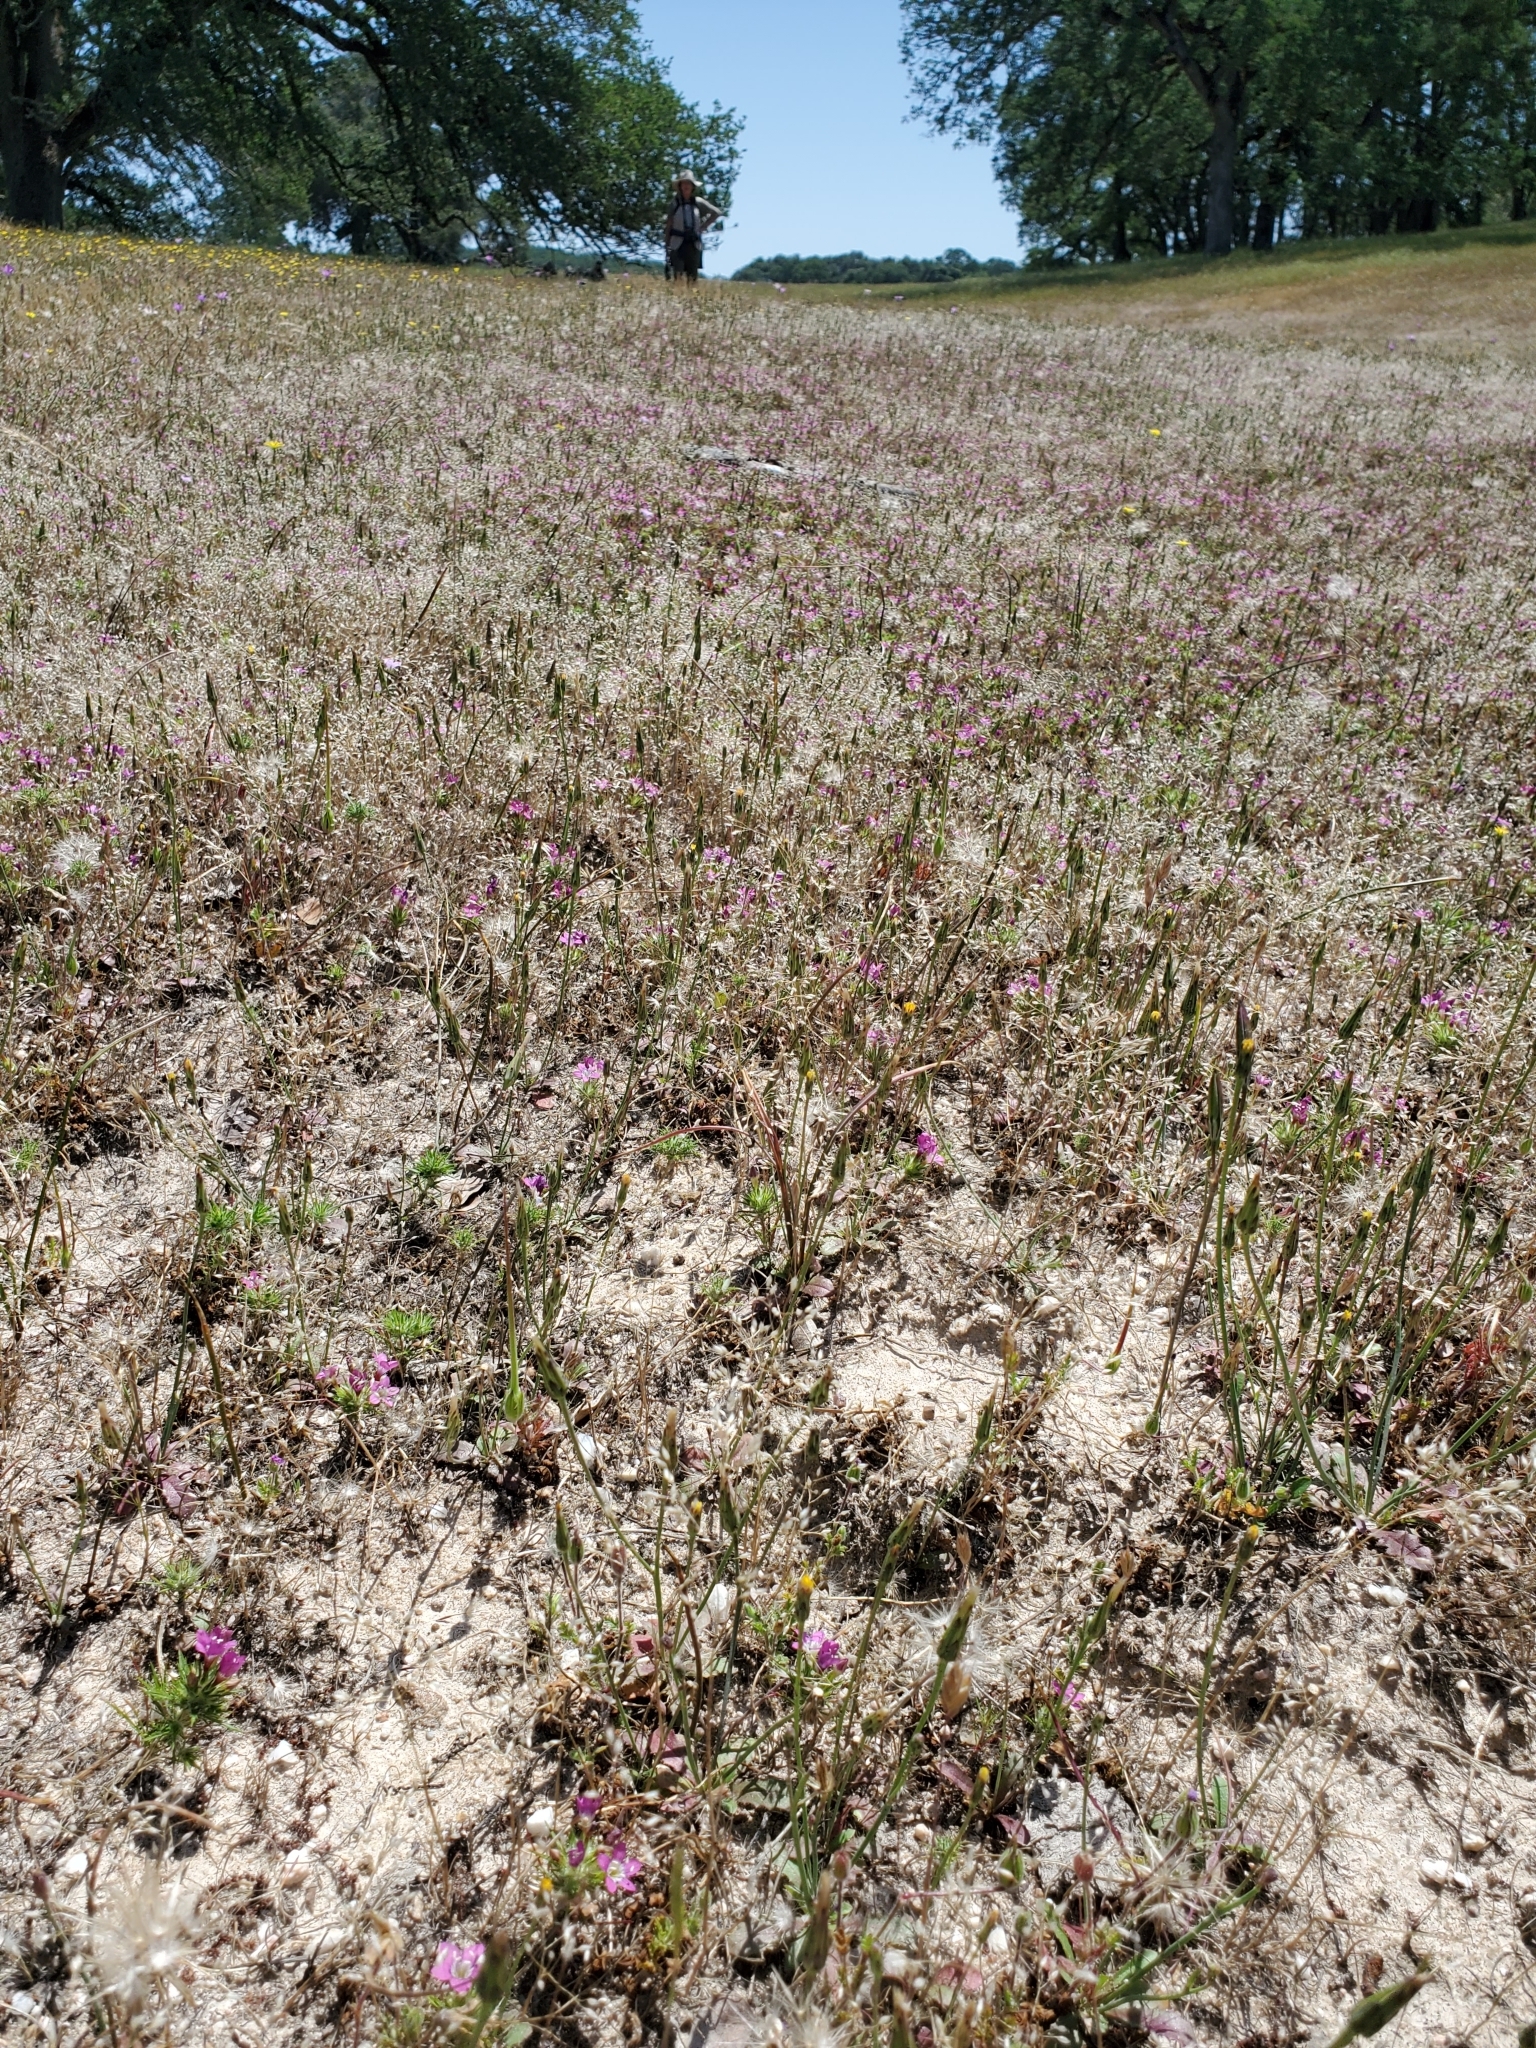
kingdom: Plantae
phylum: Tracheophyta
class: Magnoliopsida
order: Ericales
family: Polemoniaceae
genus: Navarretia
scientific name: Navarretia viscidula
